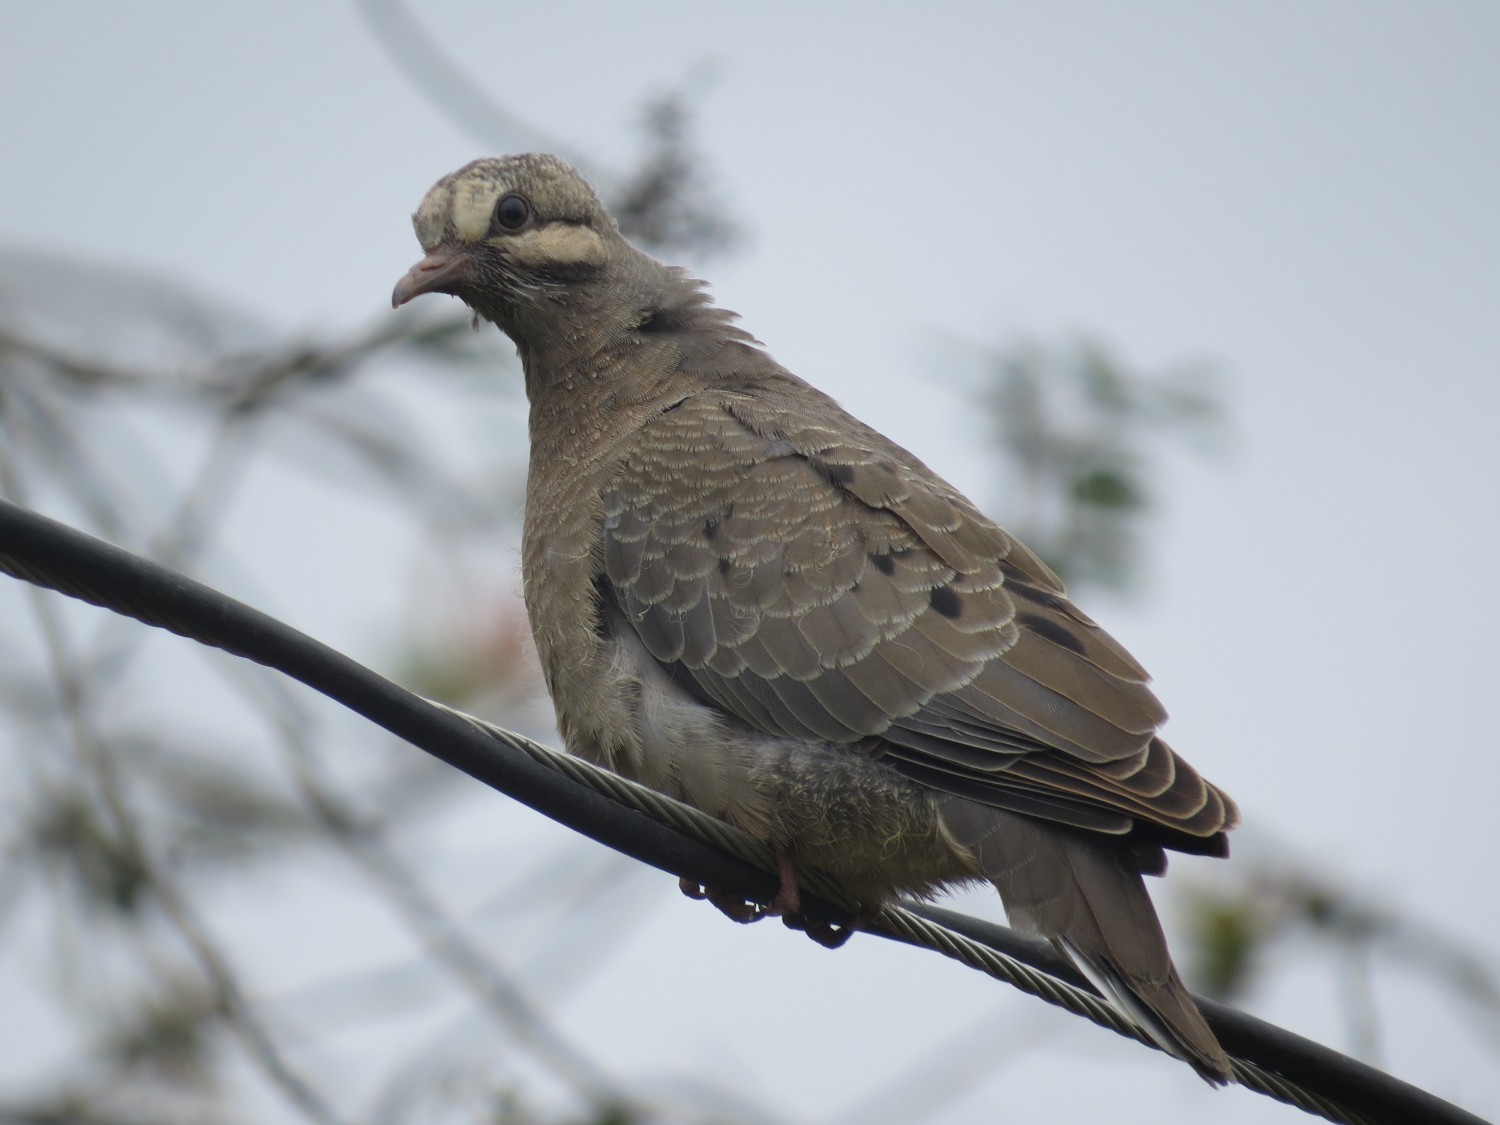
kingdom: Animalia
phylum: Chordata
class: Aves
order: Columbiformes
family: Columbidae
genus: Zenaida
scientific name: Zenaida auriculata
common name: Eared dove
